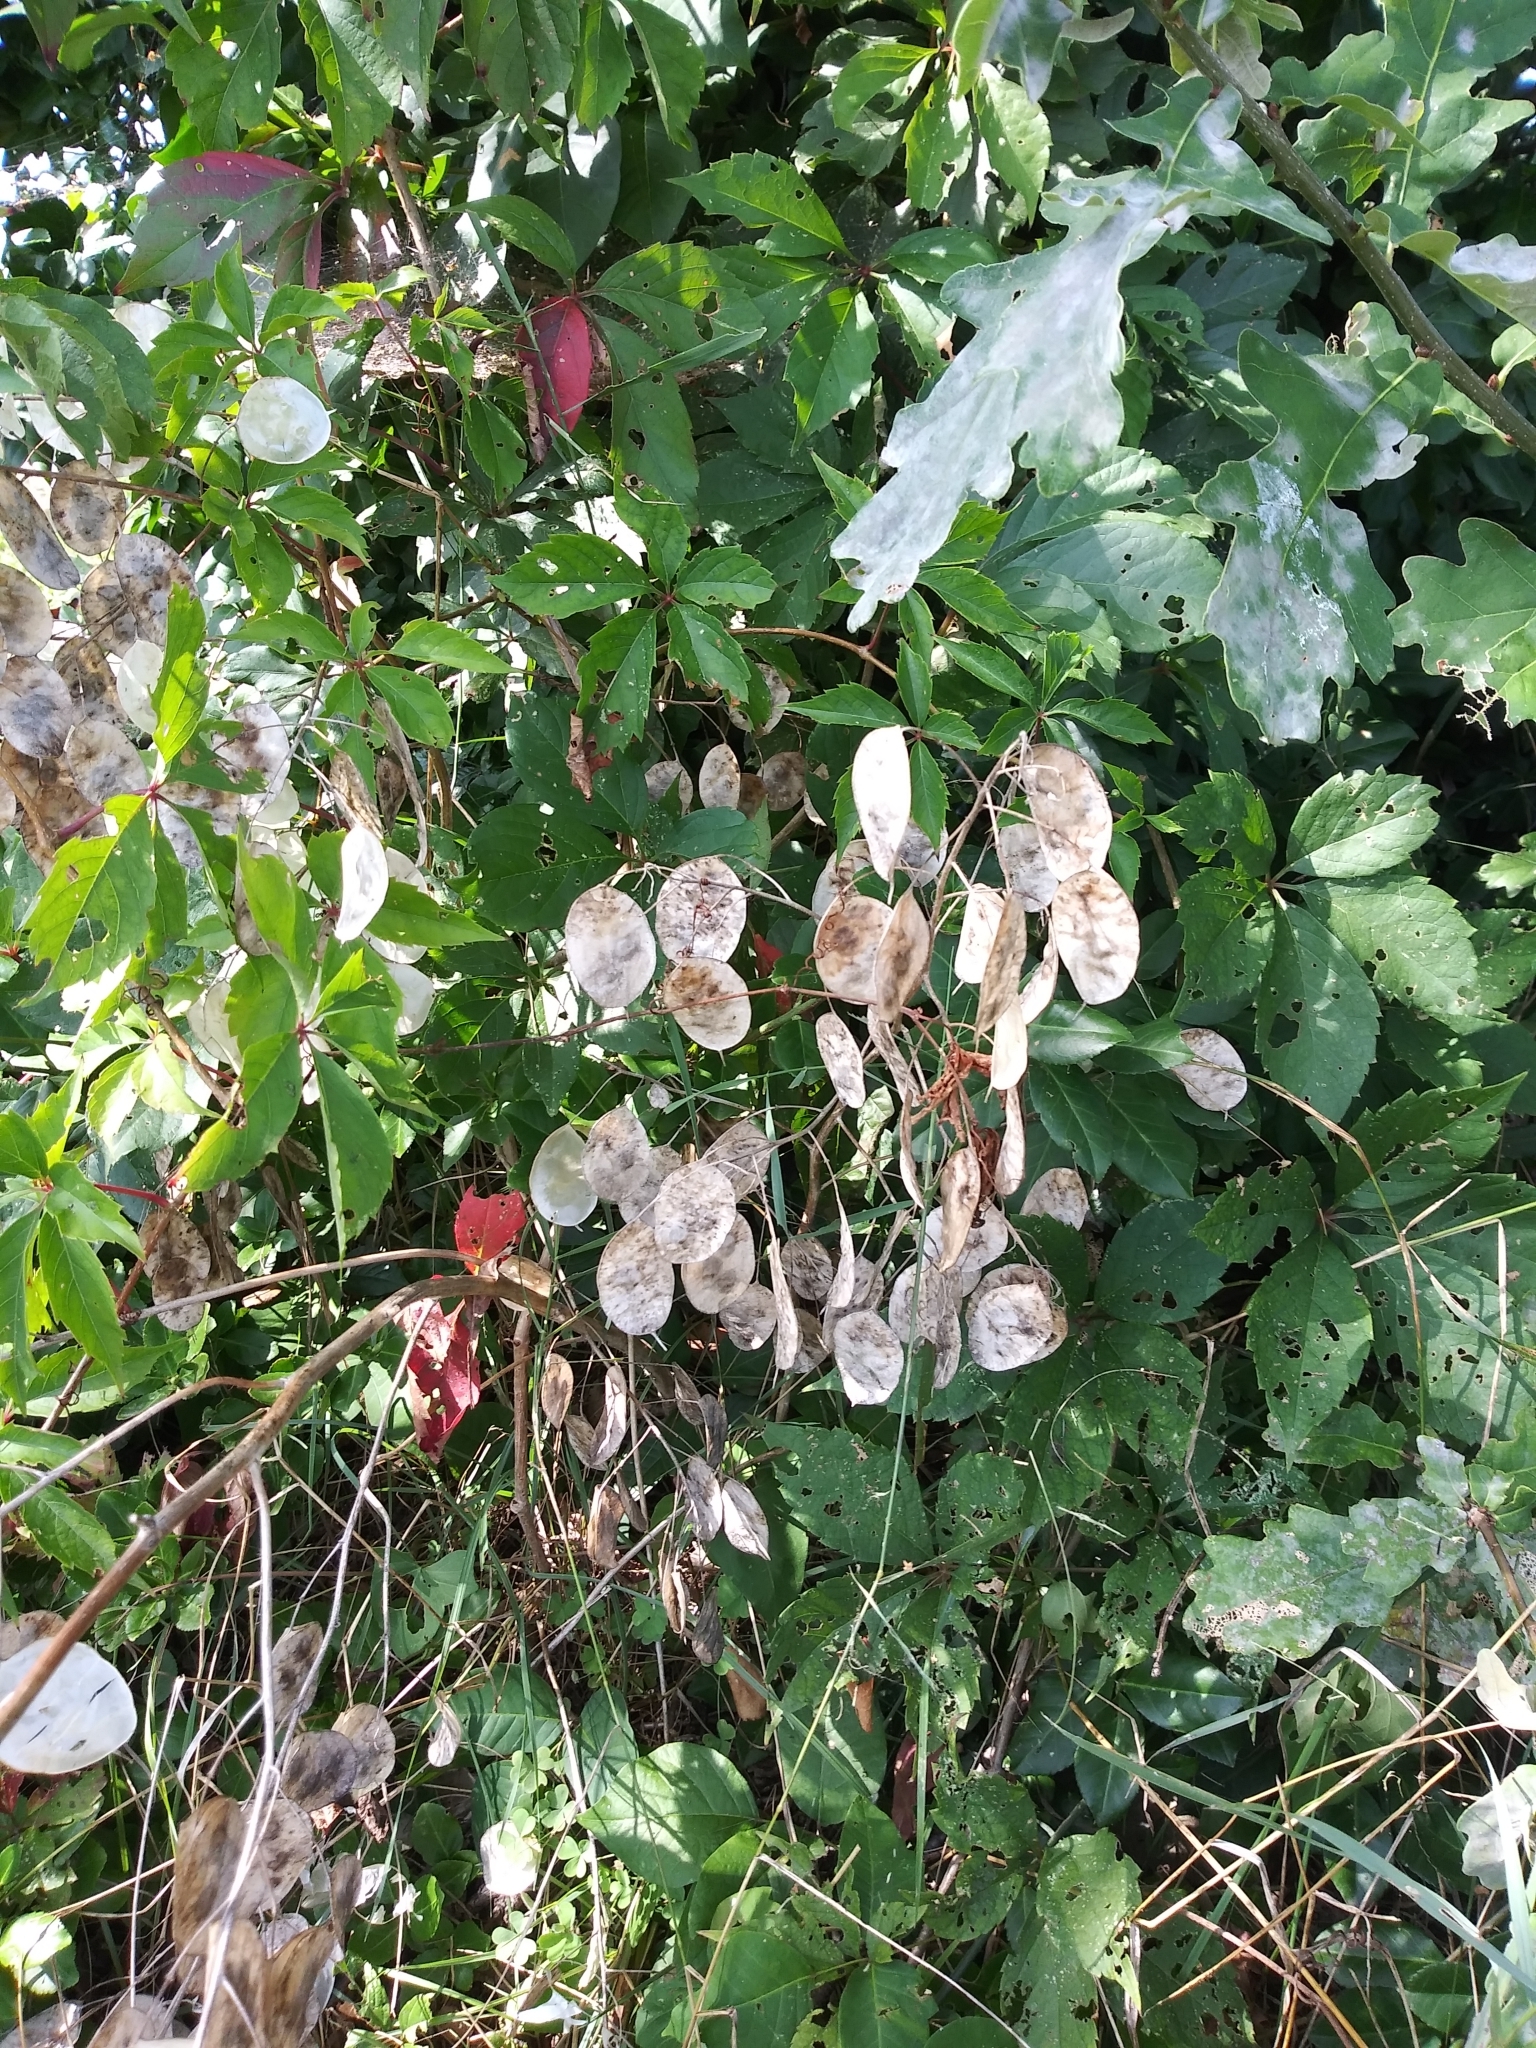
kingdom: Plantae
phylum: Tracheophyta
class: Magnoliopsida
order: Brassicales
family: Brassicaceae
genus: Lunaria
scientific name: Lunaria annua
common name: Honesty
